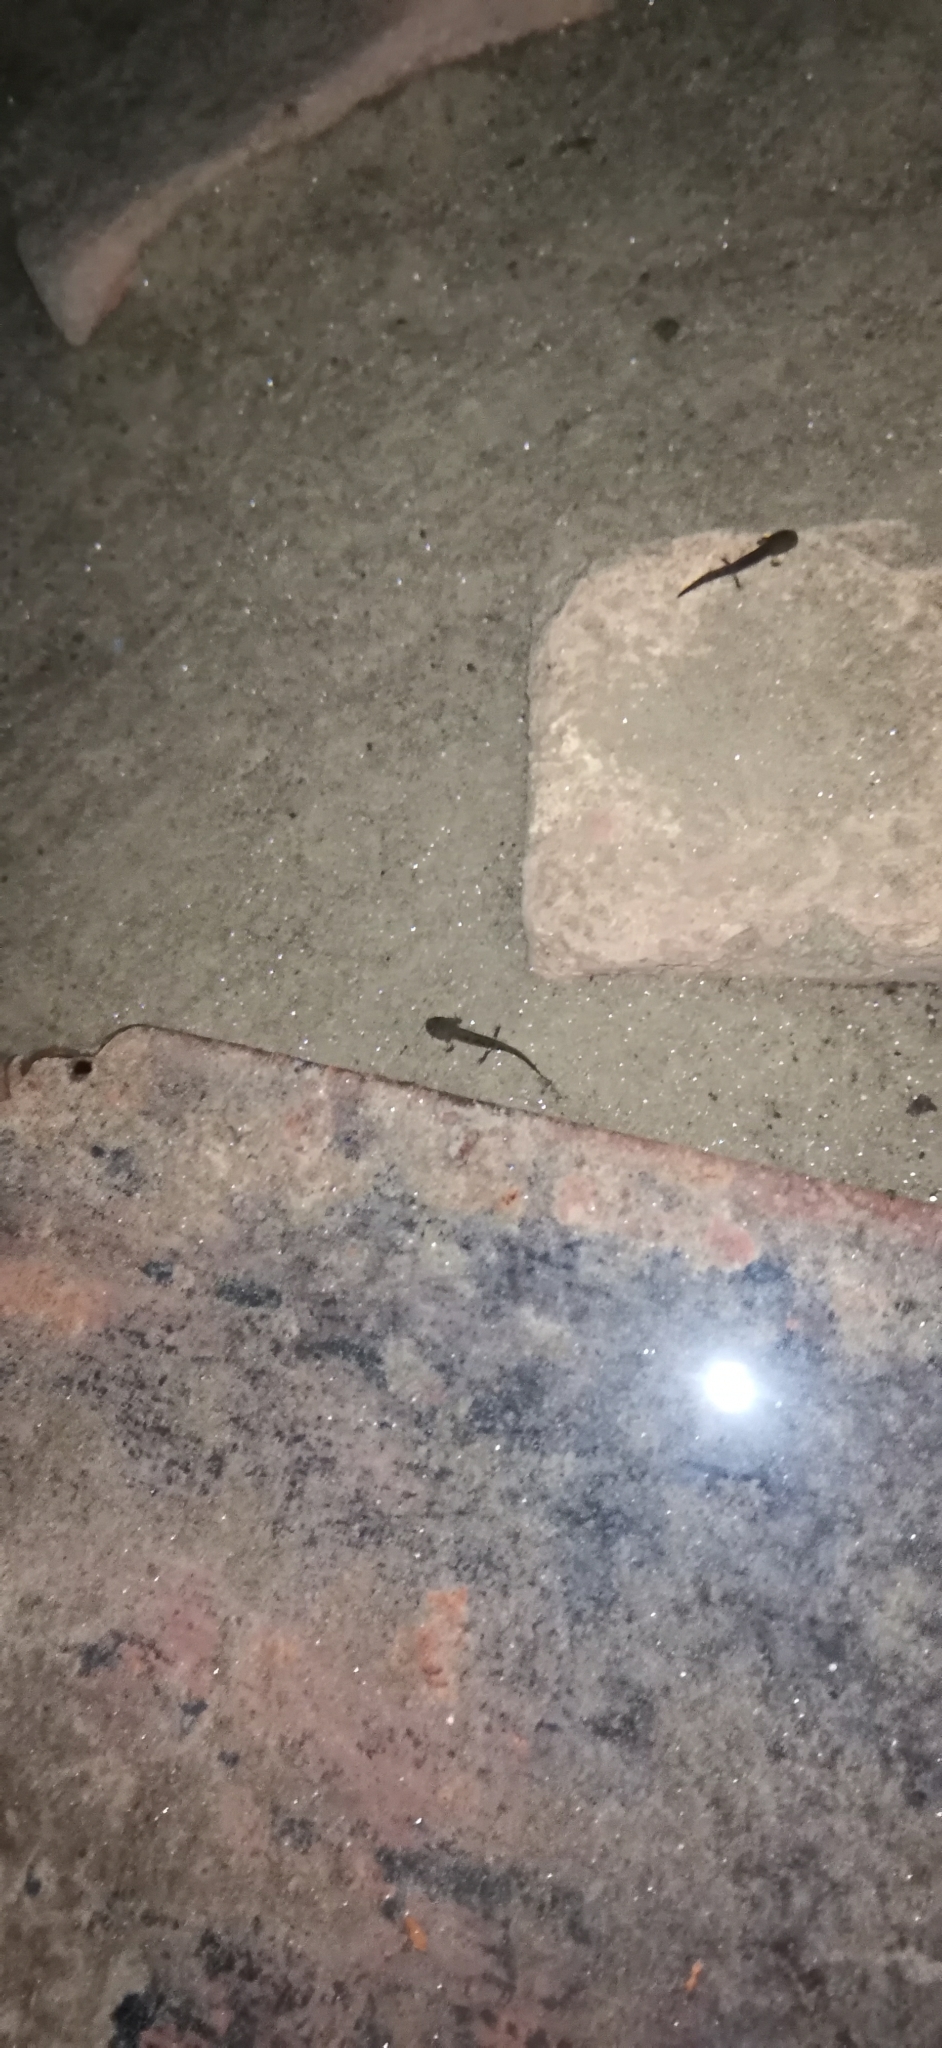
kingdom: Animalia
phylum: Chordata
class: Amphibia
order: Caudata
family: Salamandridae
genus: Salamandra
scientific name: Salamandra salamandra
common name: Fire salamander
